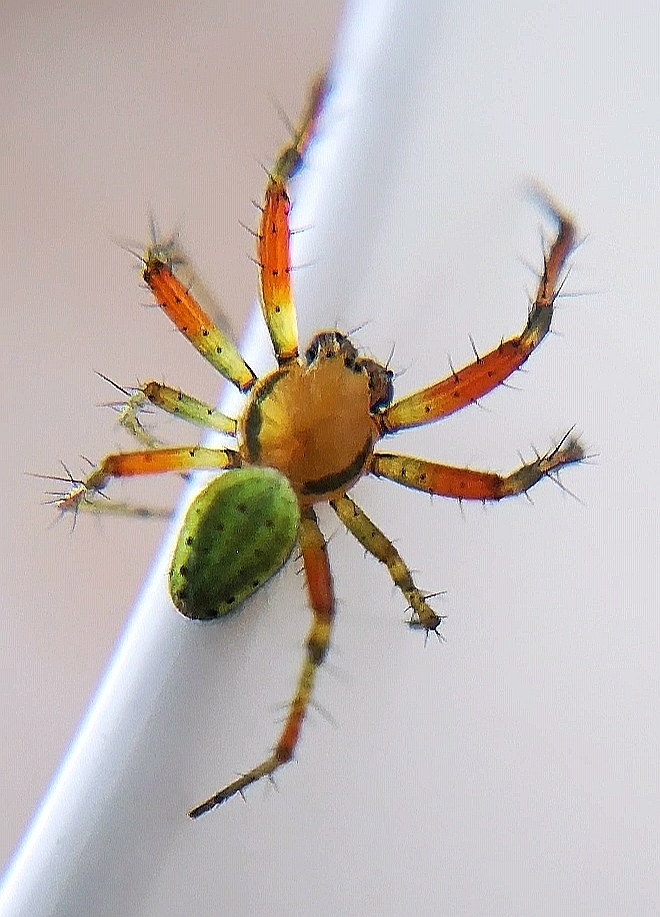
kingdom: Animalia
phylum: Arthropoda
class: Arachnida
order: Araneae
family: Araneidae
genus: Araniella
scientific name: Araniella cucurbitina
